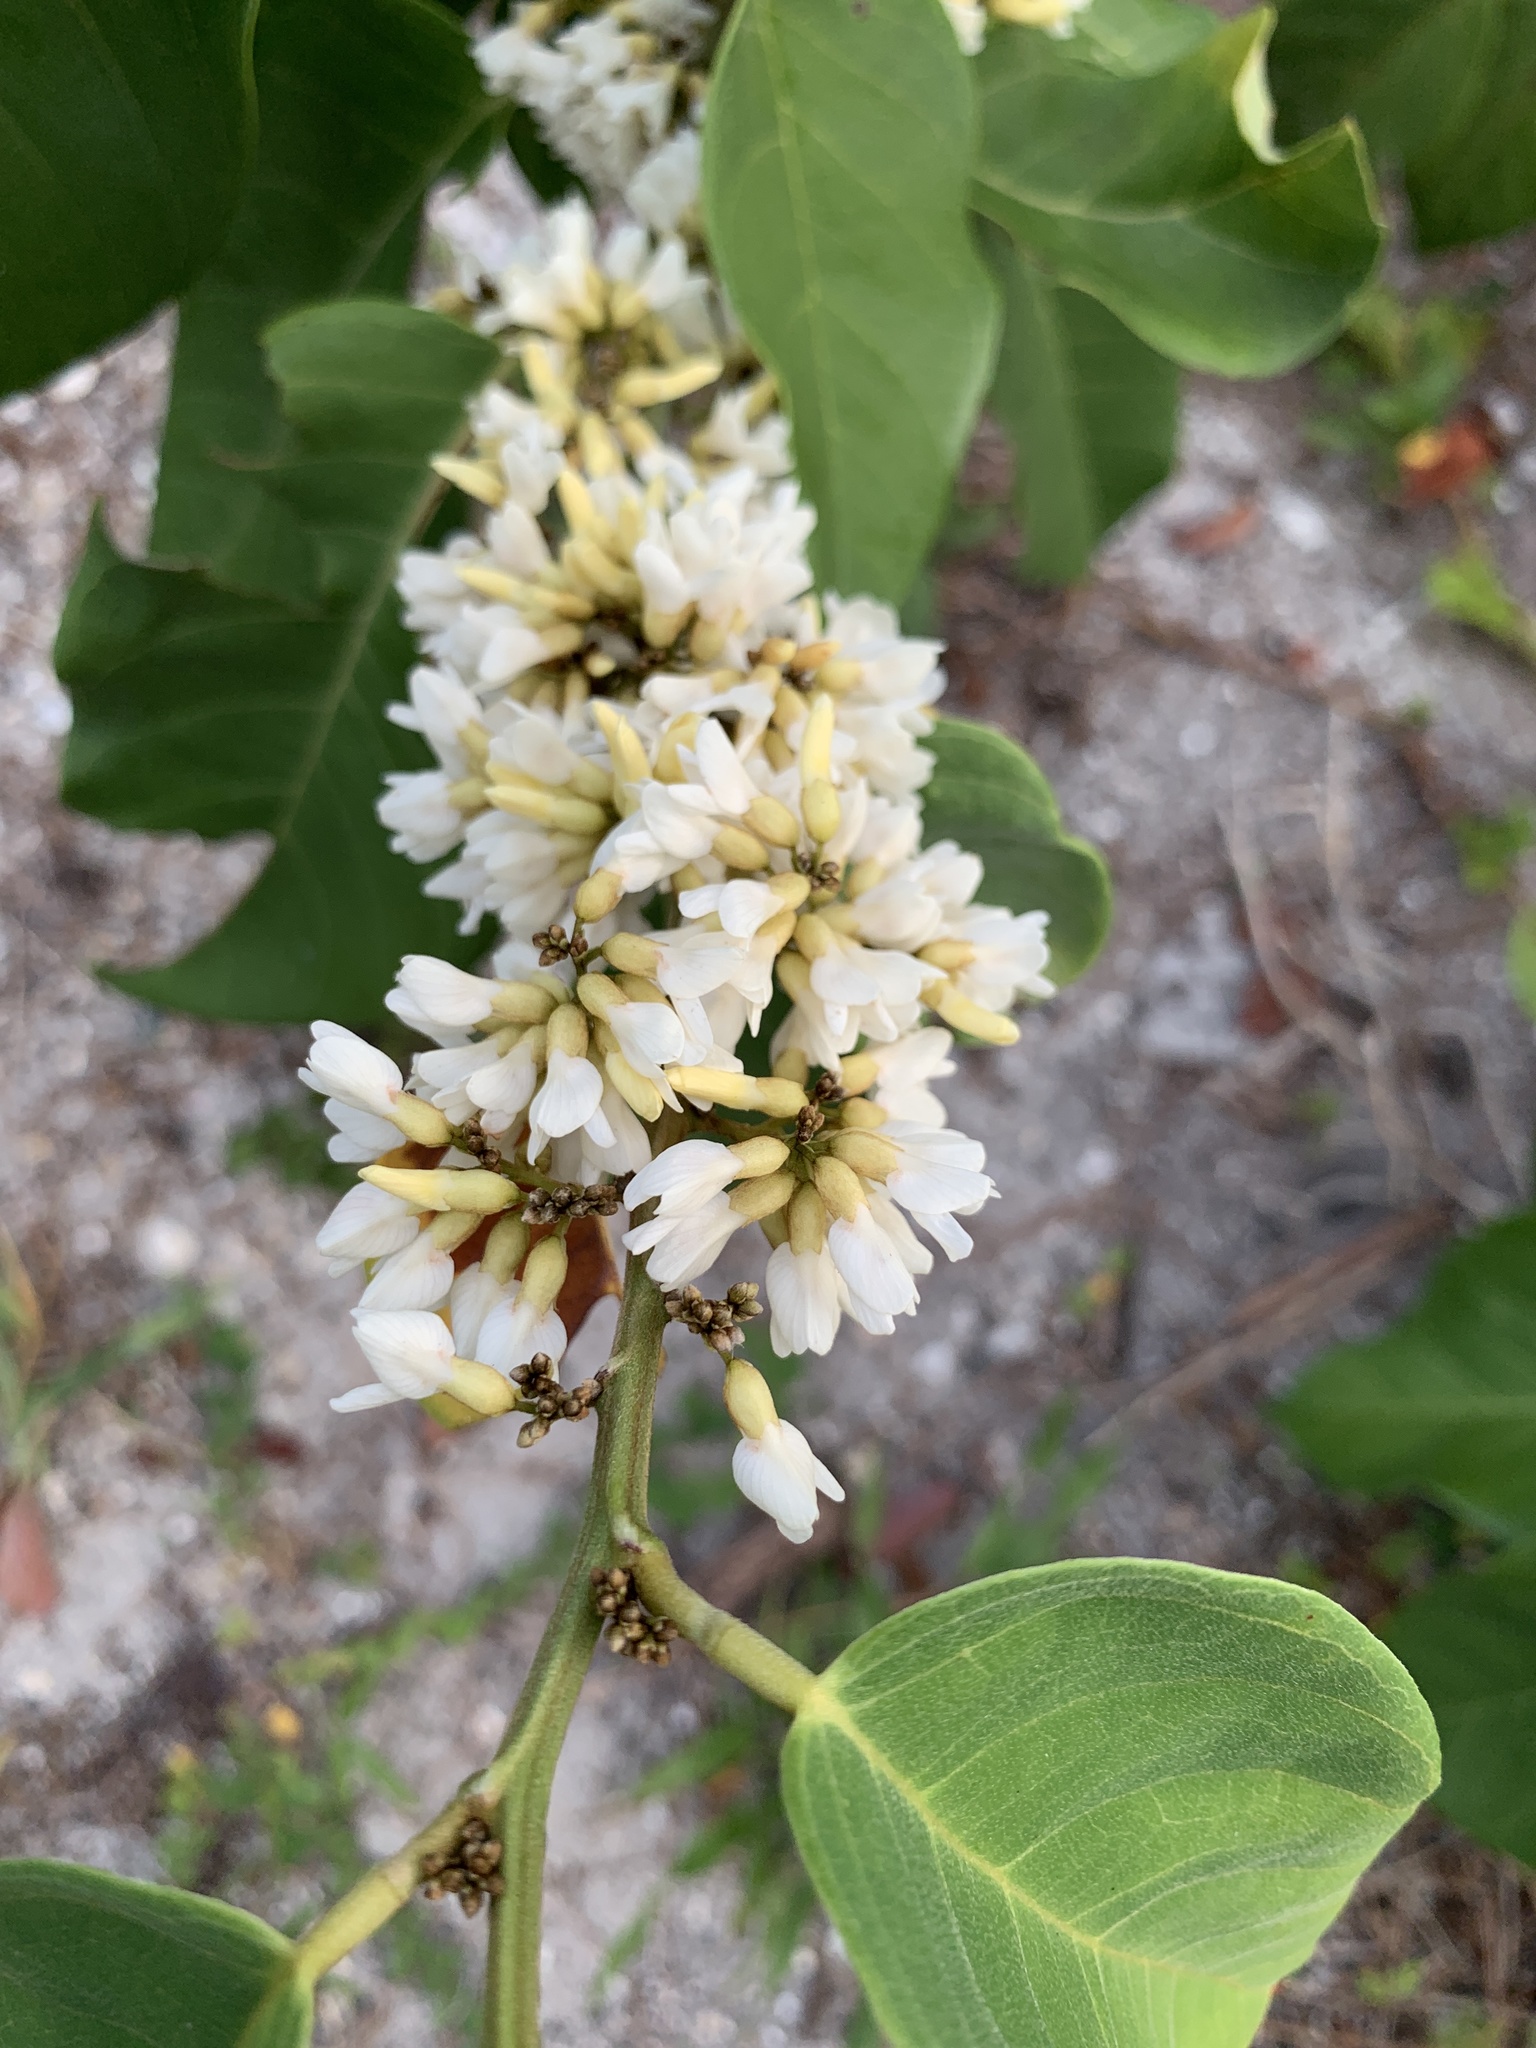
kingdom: Plantae
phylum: Tracheophyta
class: Magnoliopsida
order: Fabales
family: Fabaceae
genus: Dalbergia
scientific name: Dalbergia ecastaphyllum
